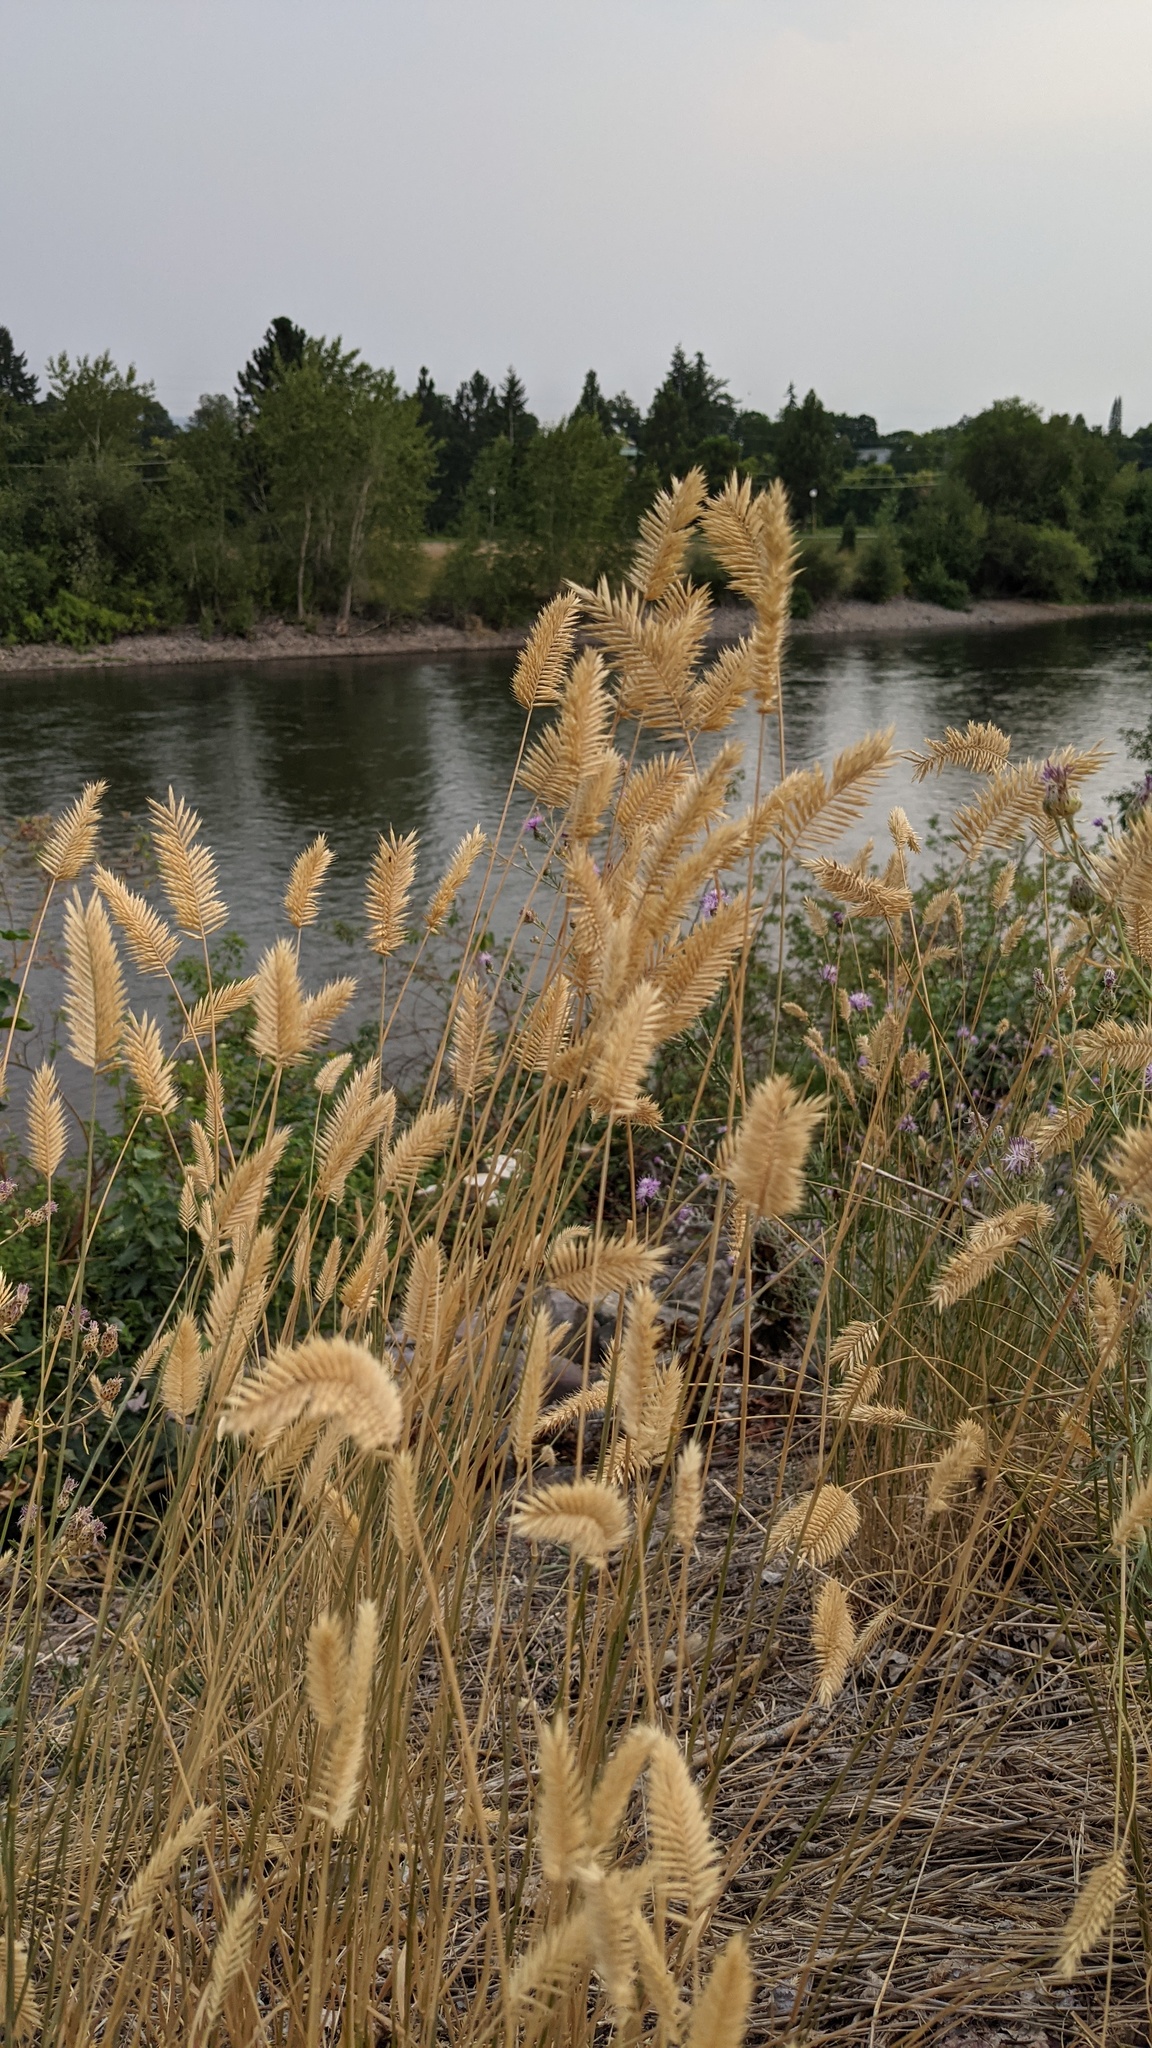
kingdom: Plantae
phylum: Tracheophyta
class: Liliopsida
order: Poales
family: Poaceae
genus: Agropyron
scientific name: Agropyron cristatum
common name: Crested wheatgrass
